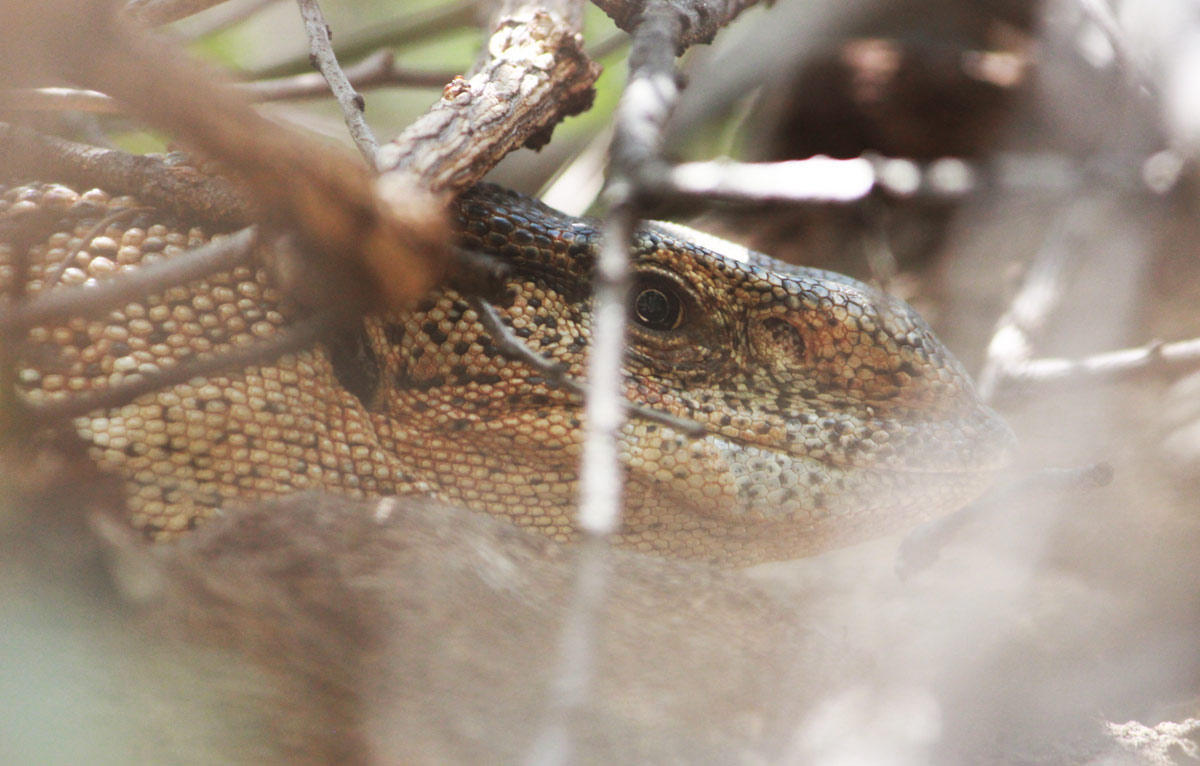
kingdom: Animalia
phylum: Chordata
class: Squamata
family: Varanidae
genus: Varanus
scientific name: Varanus albigularis
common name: White-throated monitor
